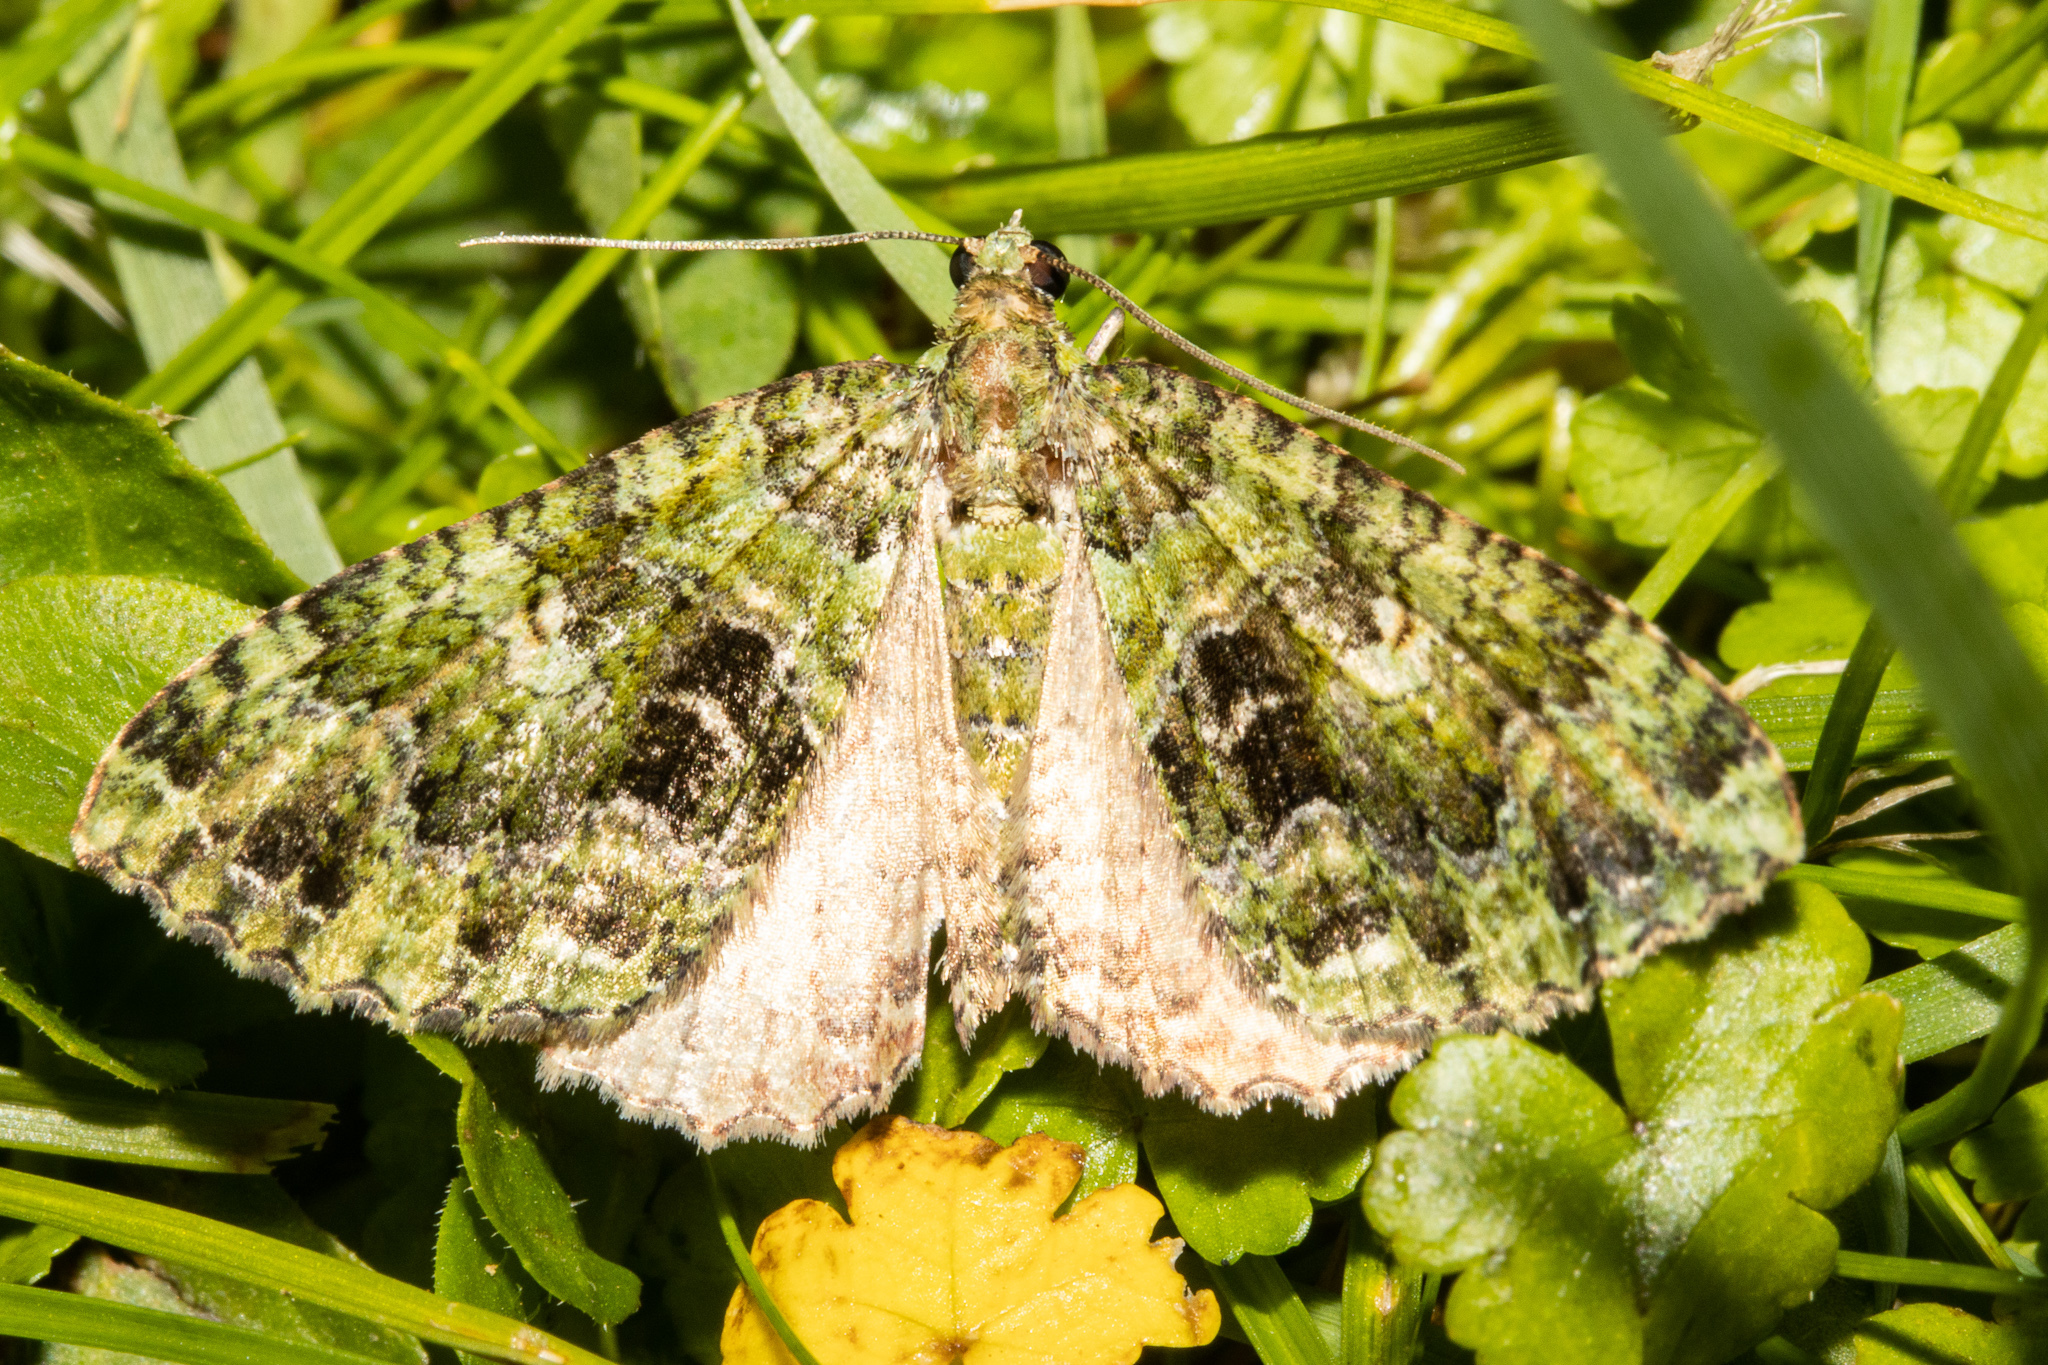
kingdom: Animalia
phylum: Arthropoda
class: Insecta
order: Lepidoptera
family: Geometridae
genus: Austrocidaria
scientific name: Austrocidaria similata
